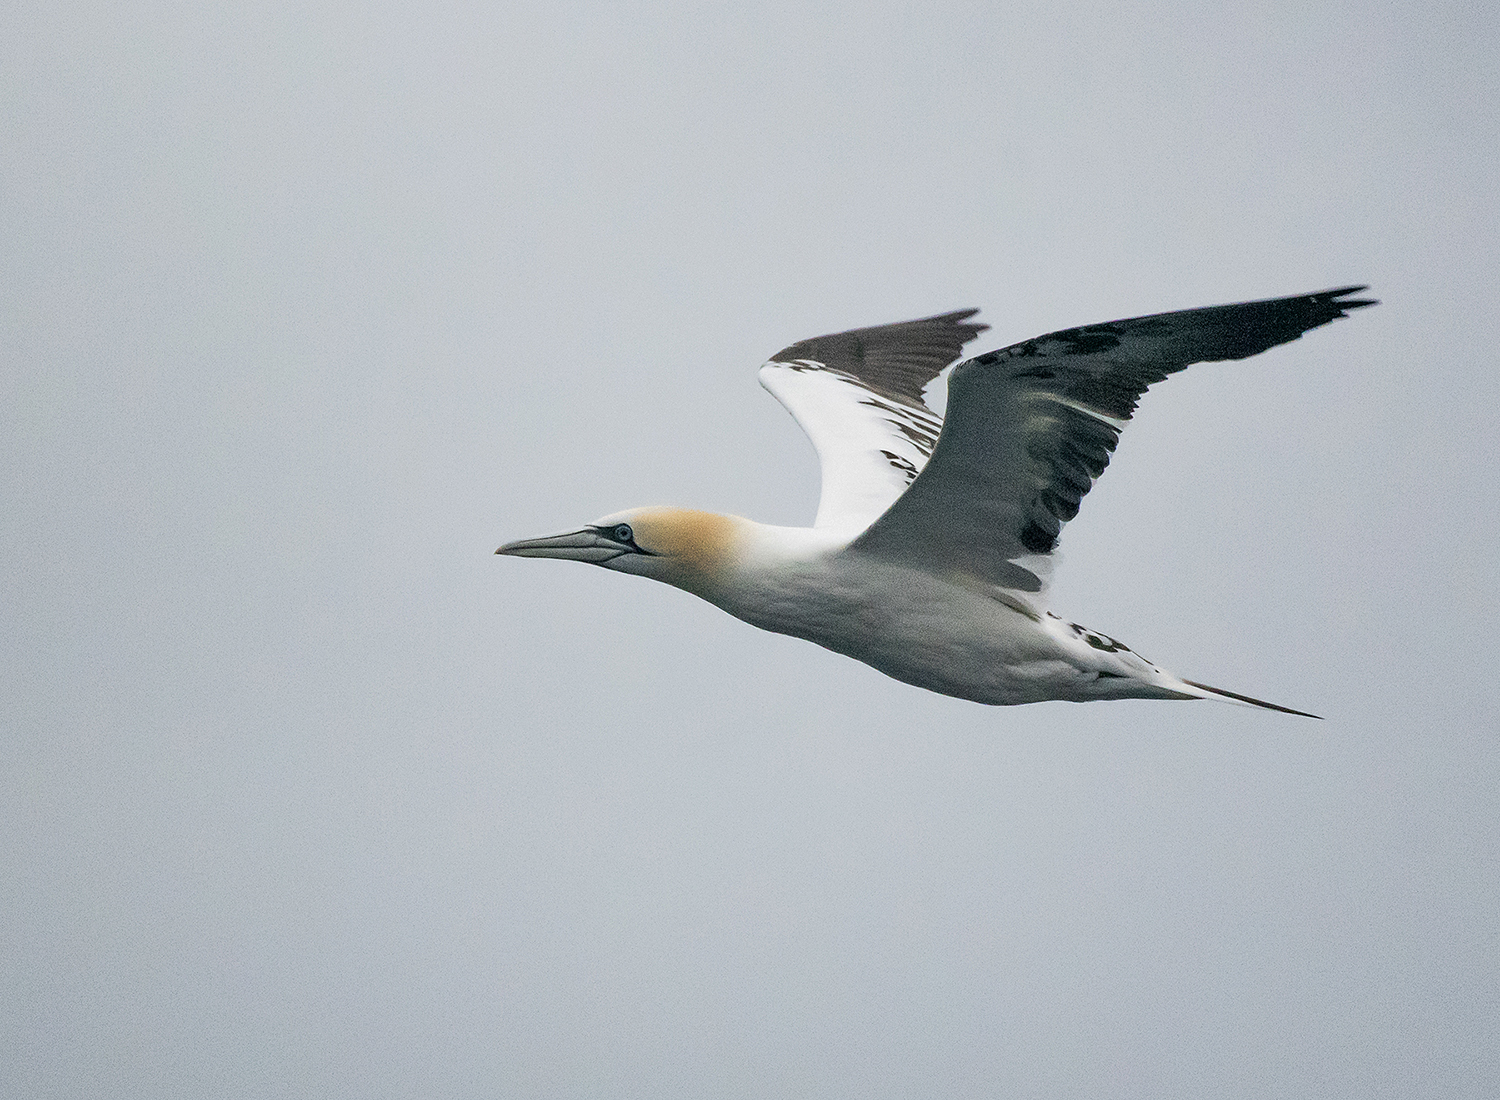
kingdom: Animalia
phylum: Chordata
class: Aves
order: Suliformes
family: Sulidae
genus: Morus
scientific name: Morus bassanus
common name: Northern gannet
